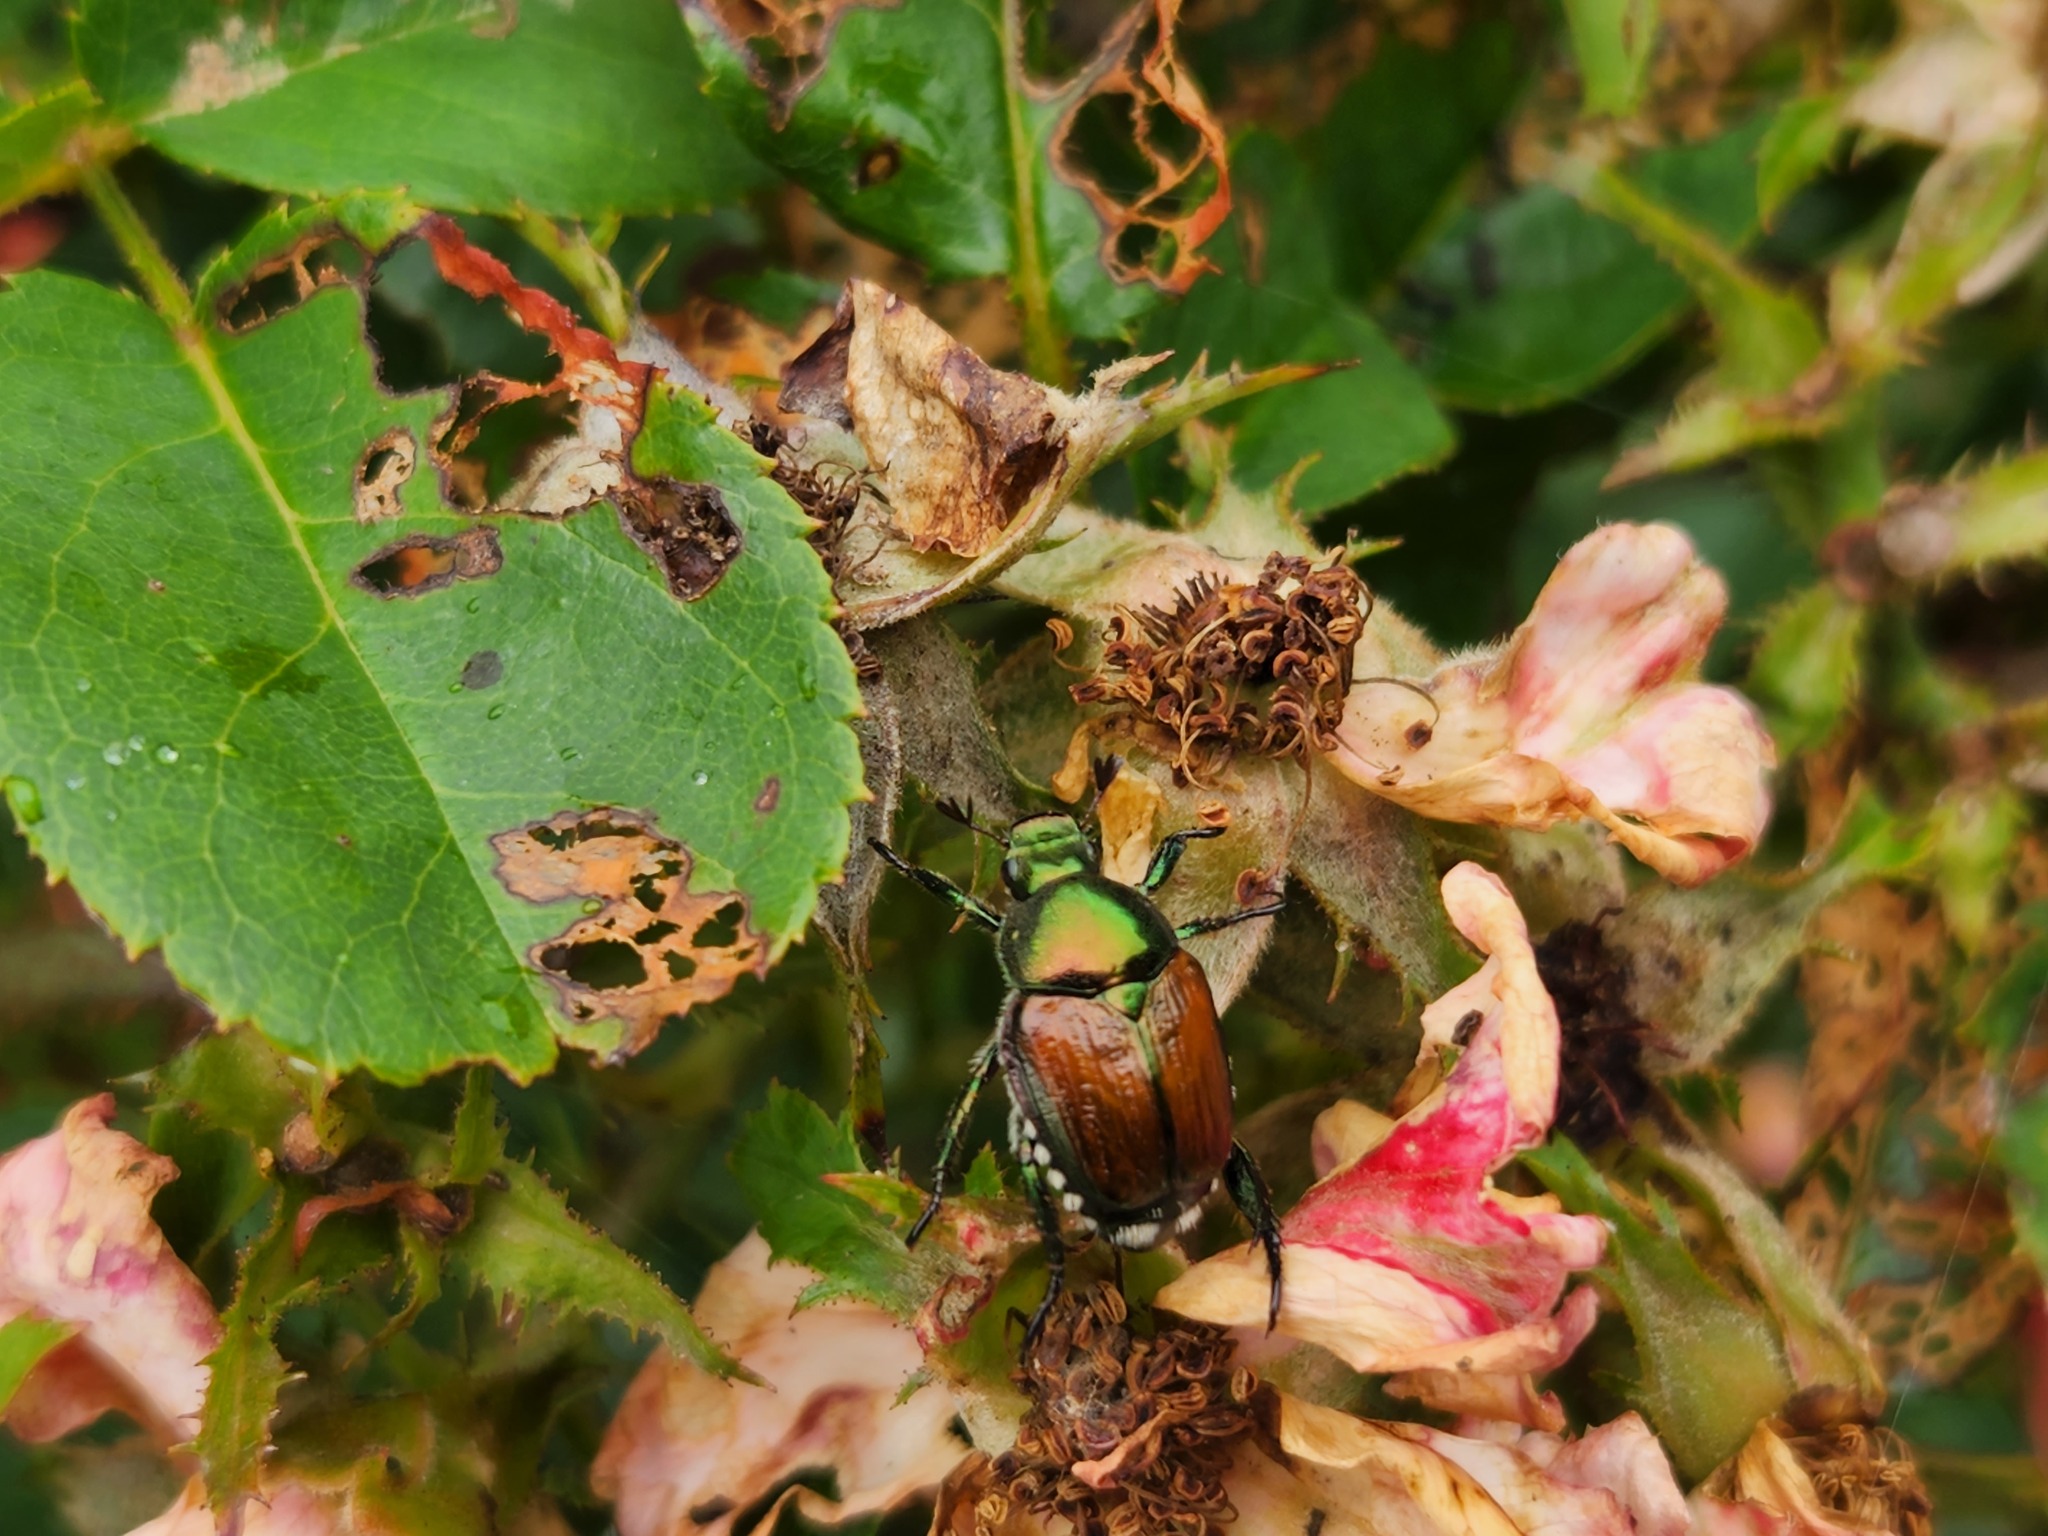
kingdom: Animalia
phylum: Arthropoda
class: Insecta
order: Coleoptera
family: Scarabaeidae
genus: Popillia
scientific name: Popillia japonica
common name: Japanese beetle
